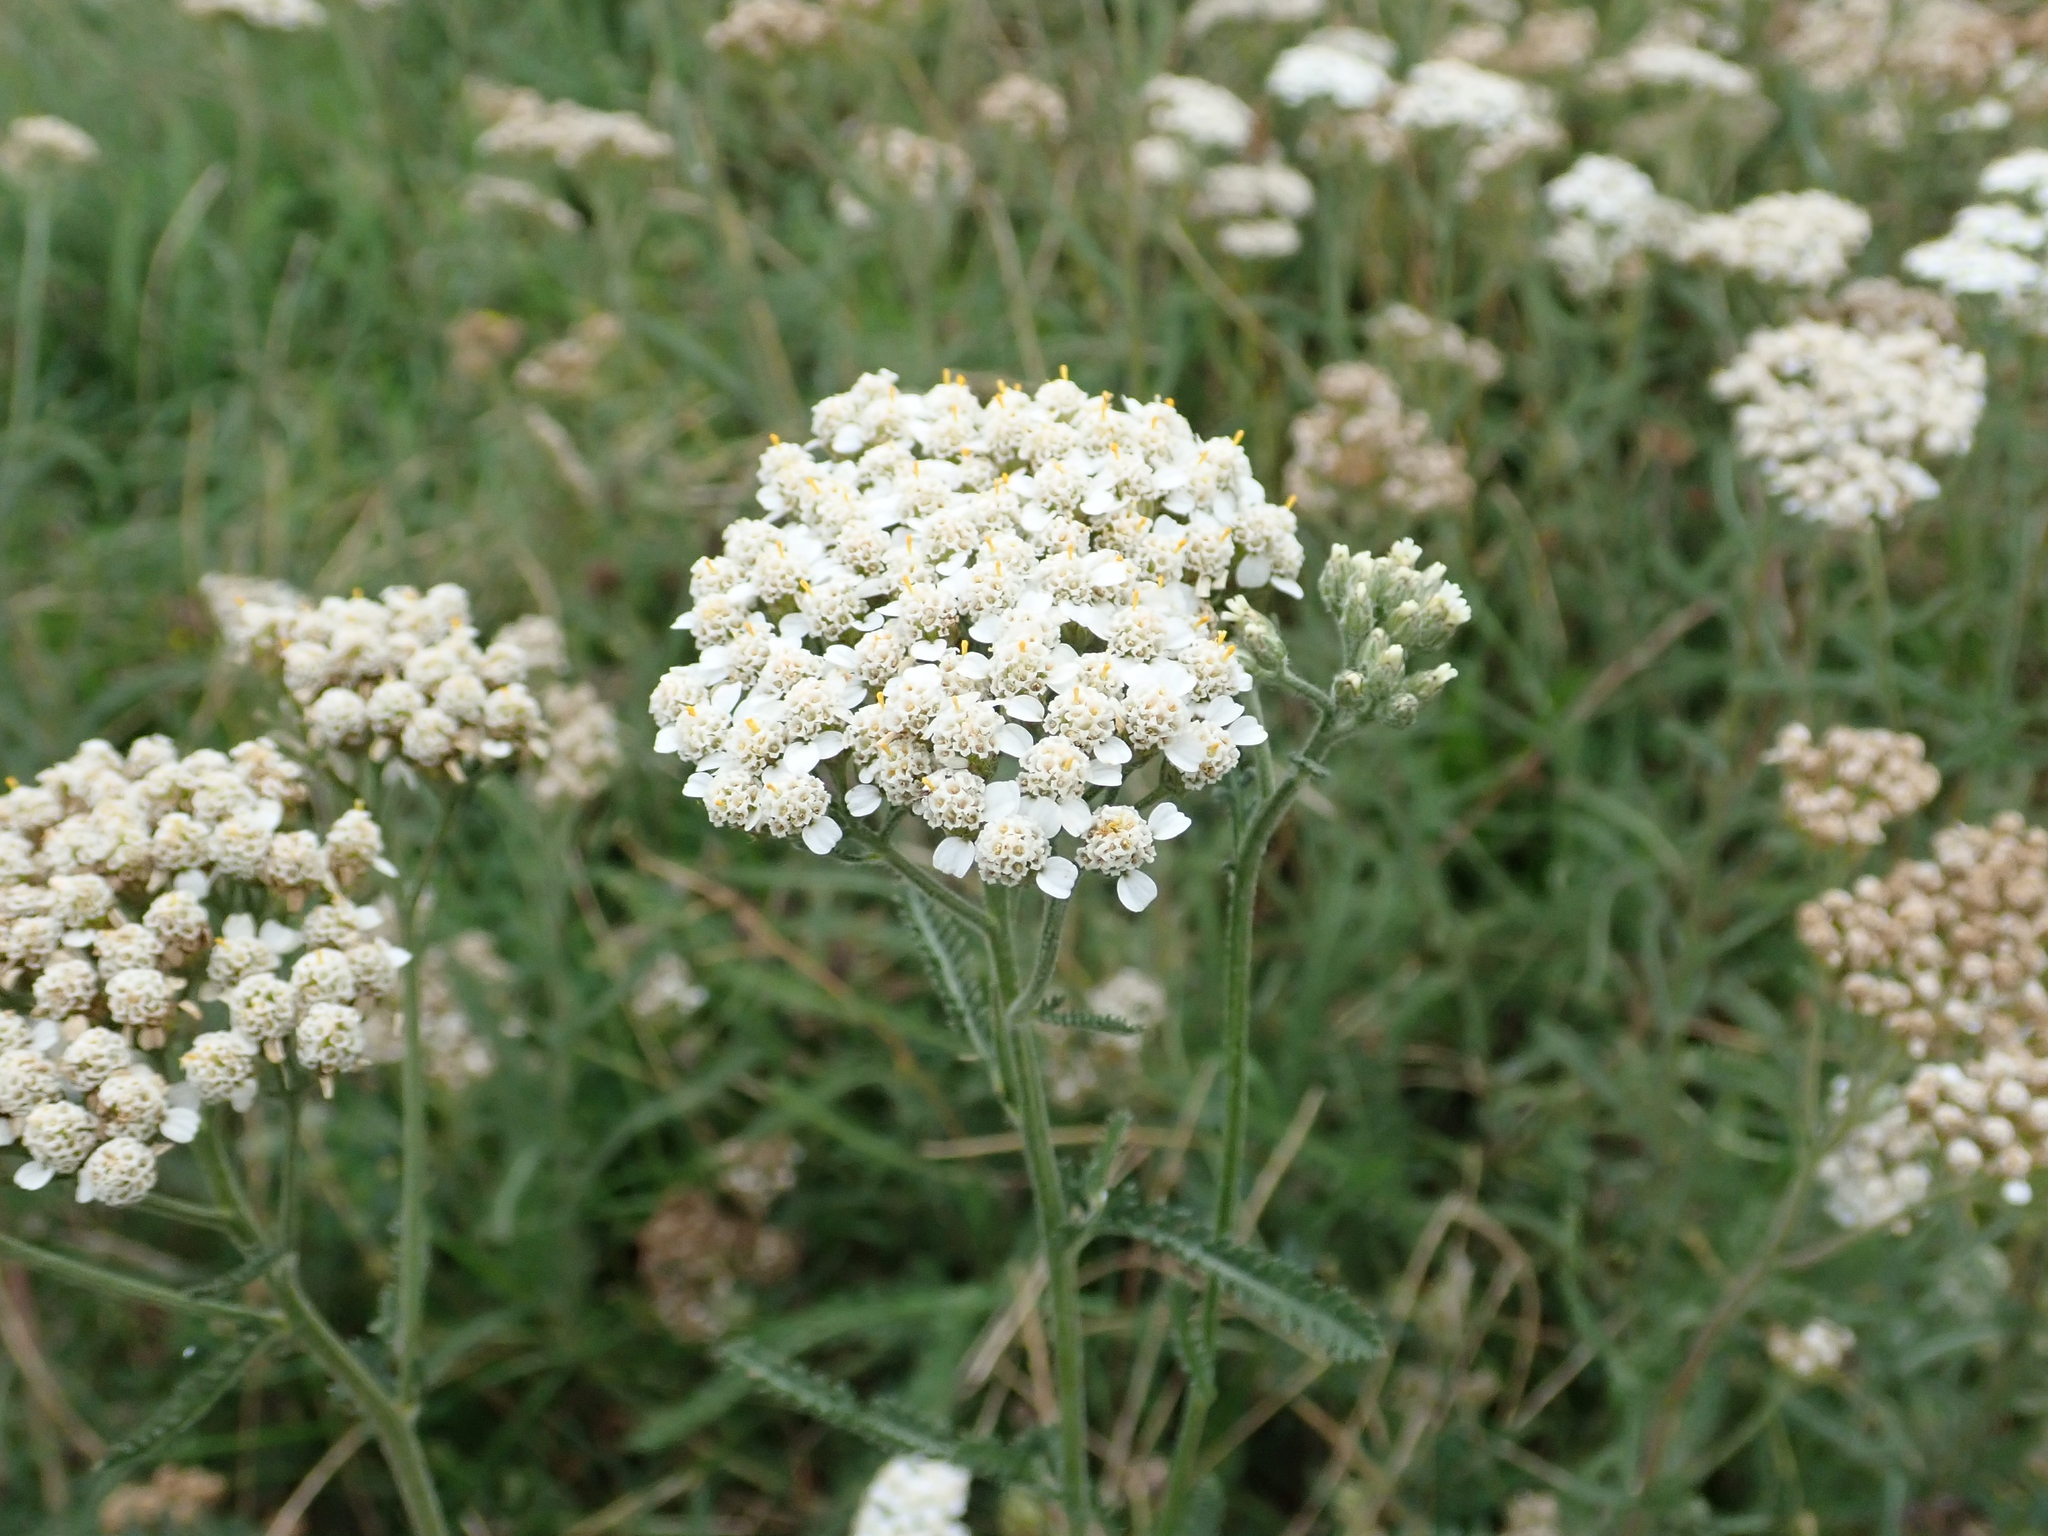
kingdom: Plantae
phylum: Tracheophyta
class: Magnoliopsida
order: Asterales
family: Asteraceae
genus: Achillea
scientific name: Achillea millefolium
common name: Yarrow
